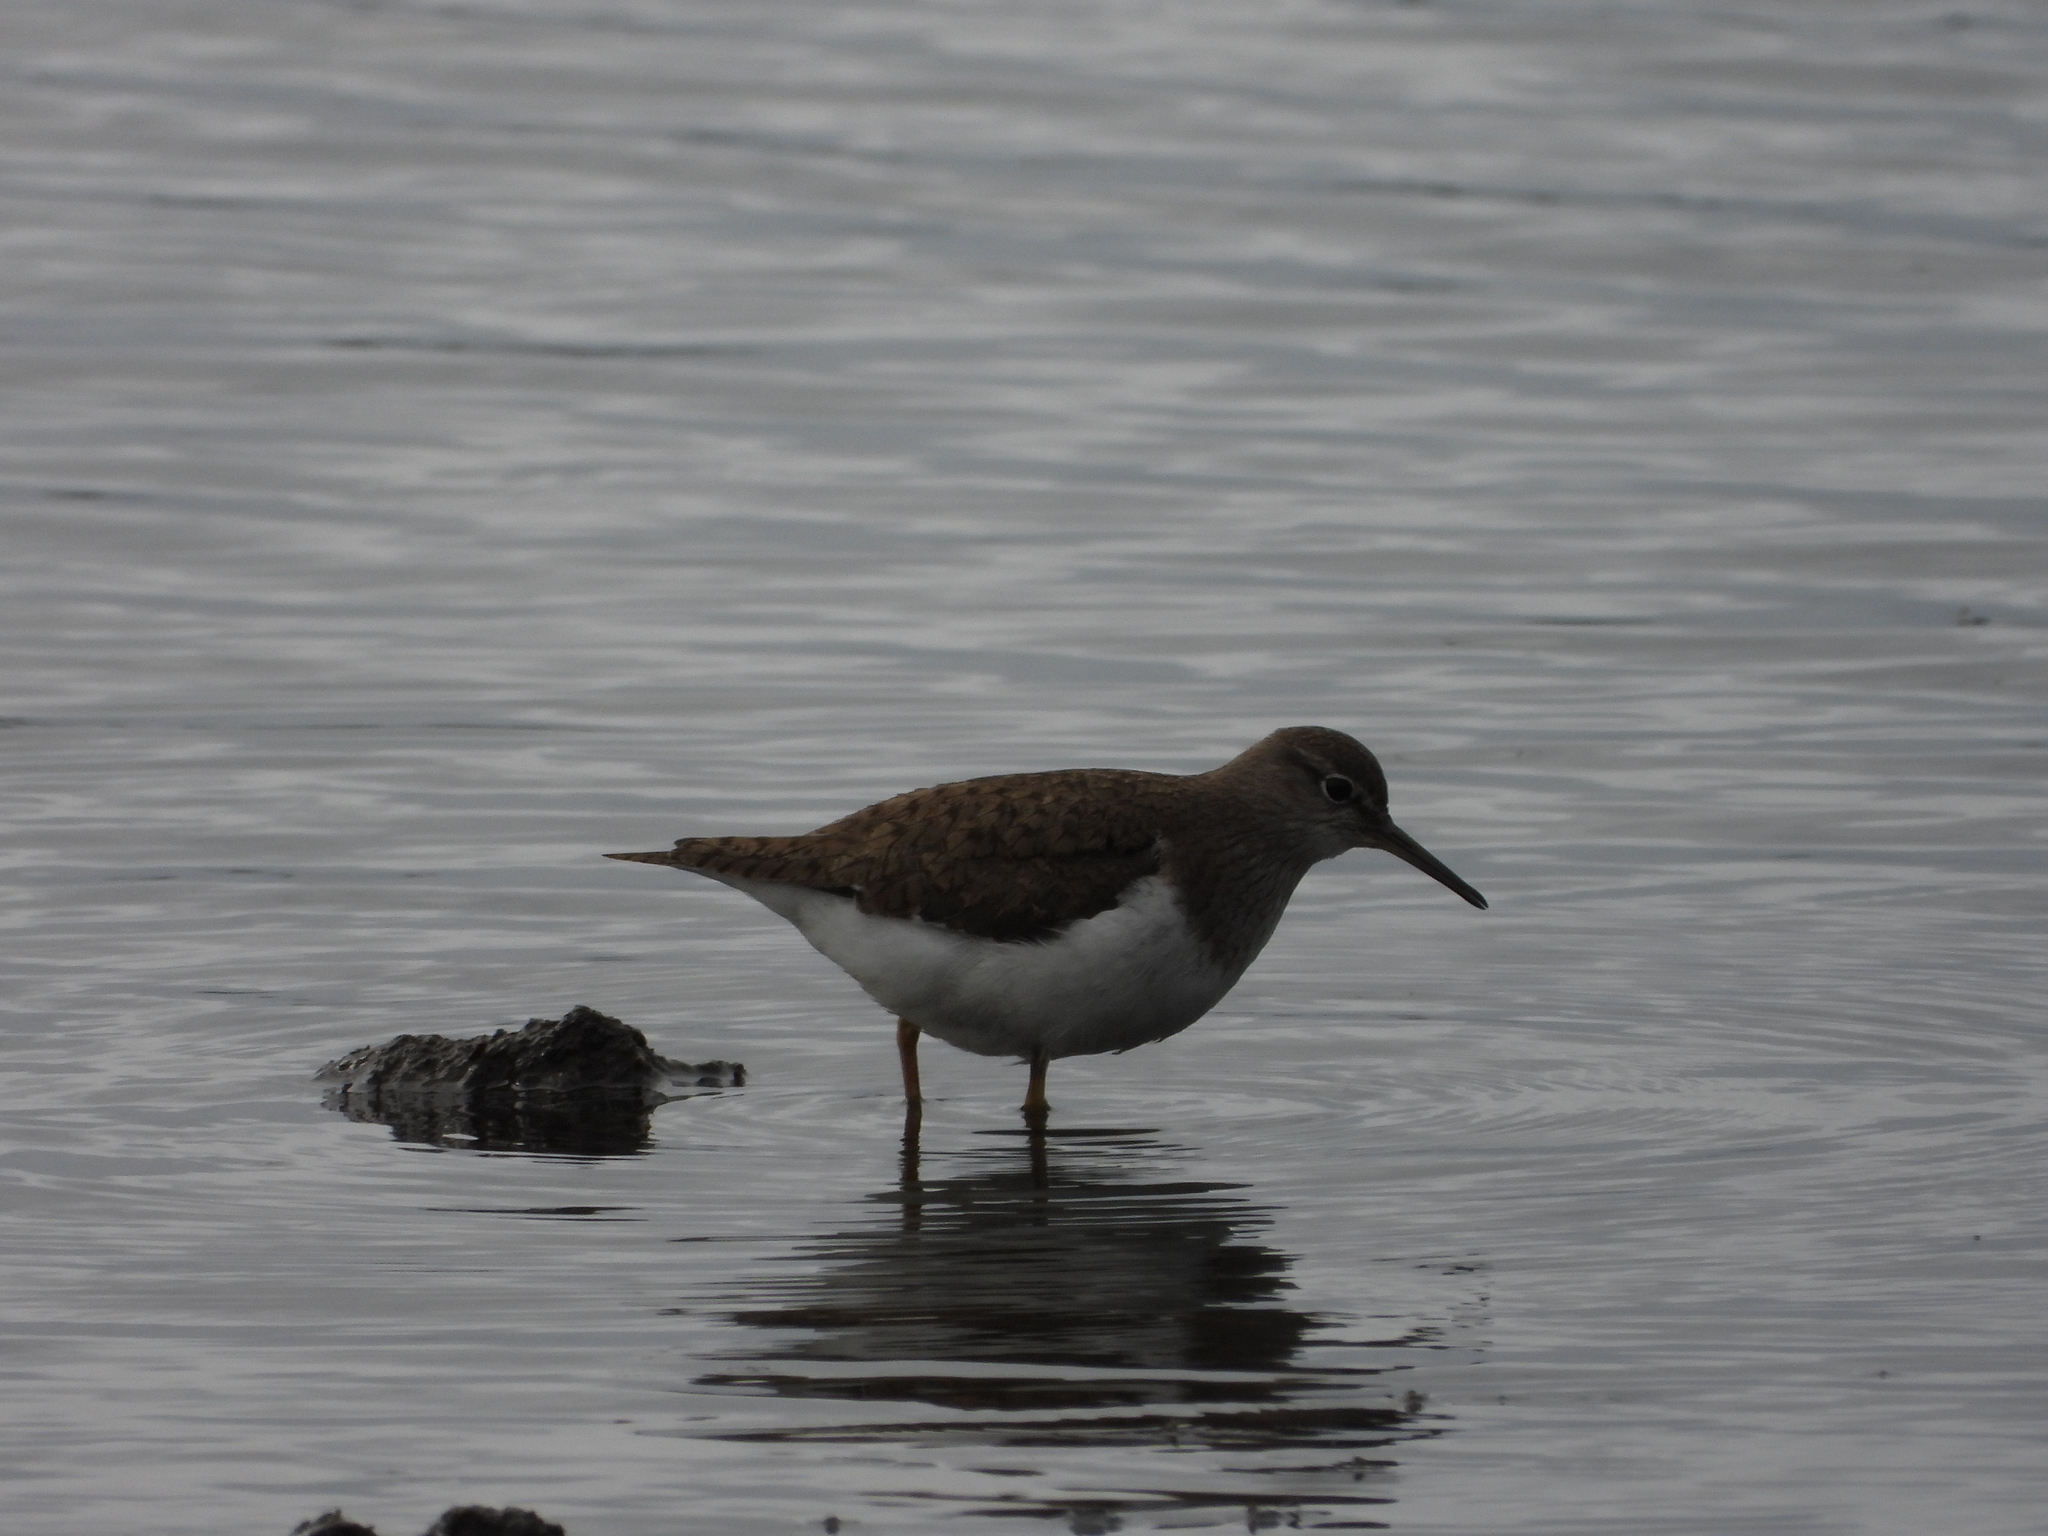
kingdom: Animalia
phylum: Chordata
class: Aves
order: Charadriiformes
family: Scolopacidae
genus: Actitis
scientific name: Actitis hypoleucos
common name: Common sandpiper
